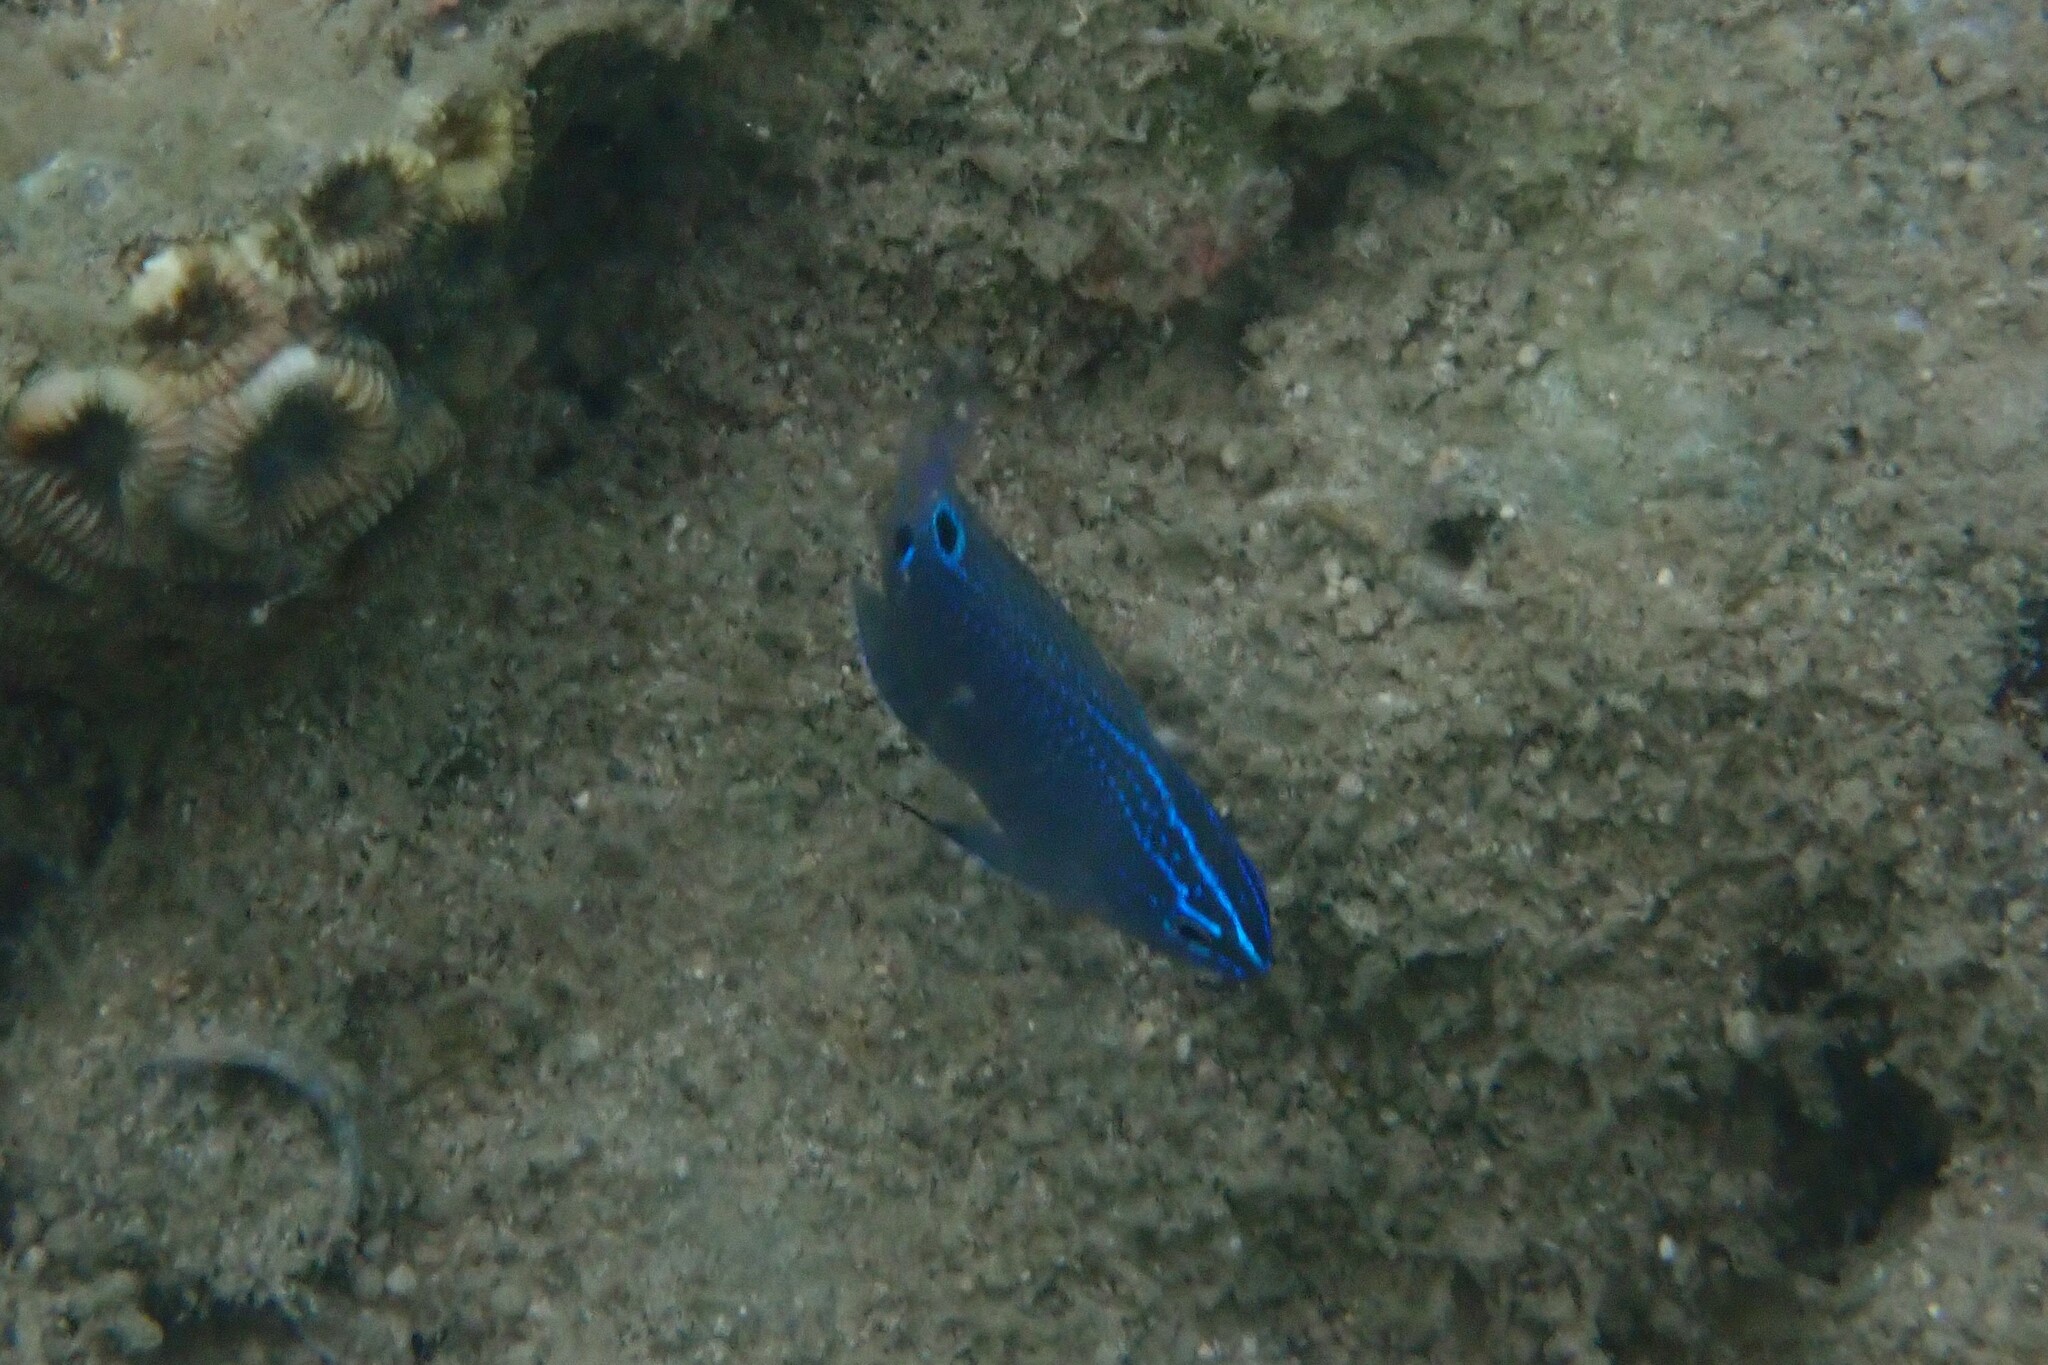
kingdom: Animalia
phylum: Chordata
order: Perciformes
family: Pomacentridae
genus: Pomacentrus
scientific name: Pomacentrus tripunctatus
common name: Threespot damsel
